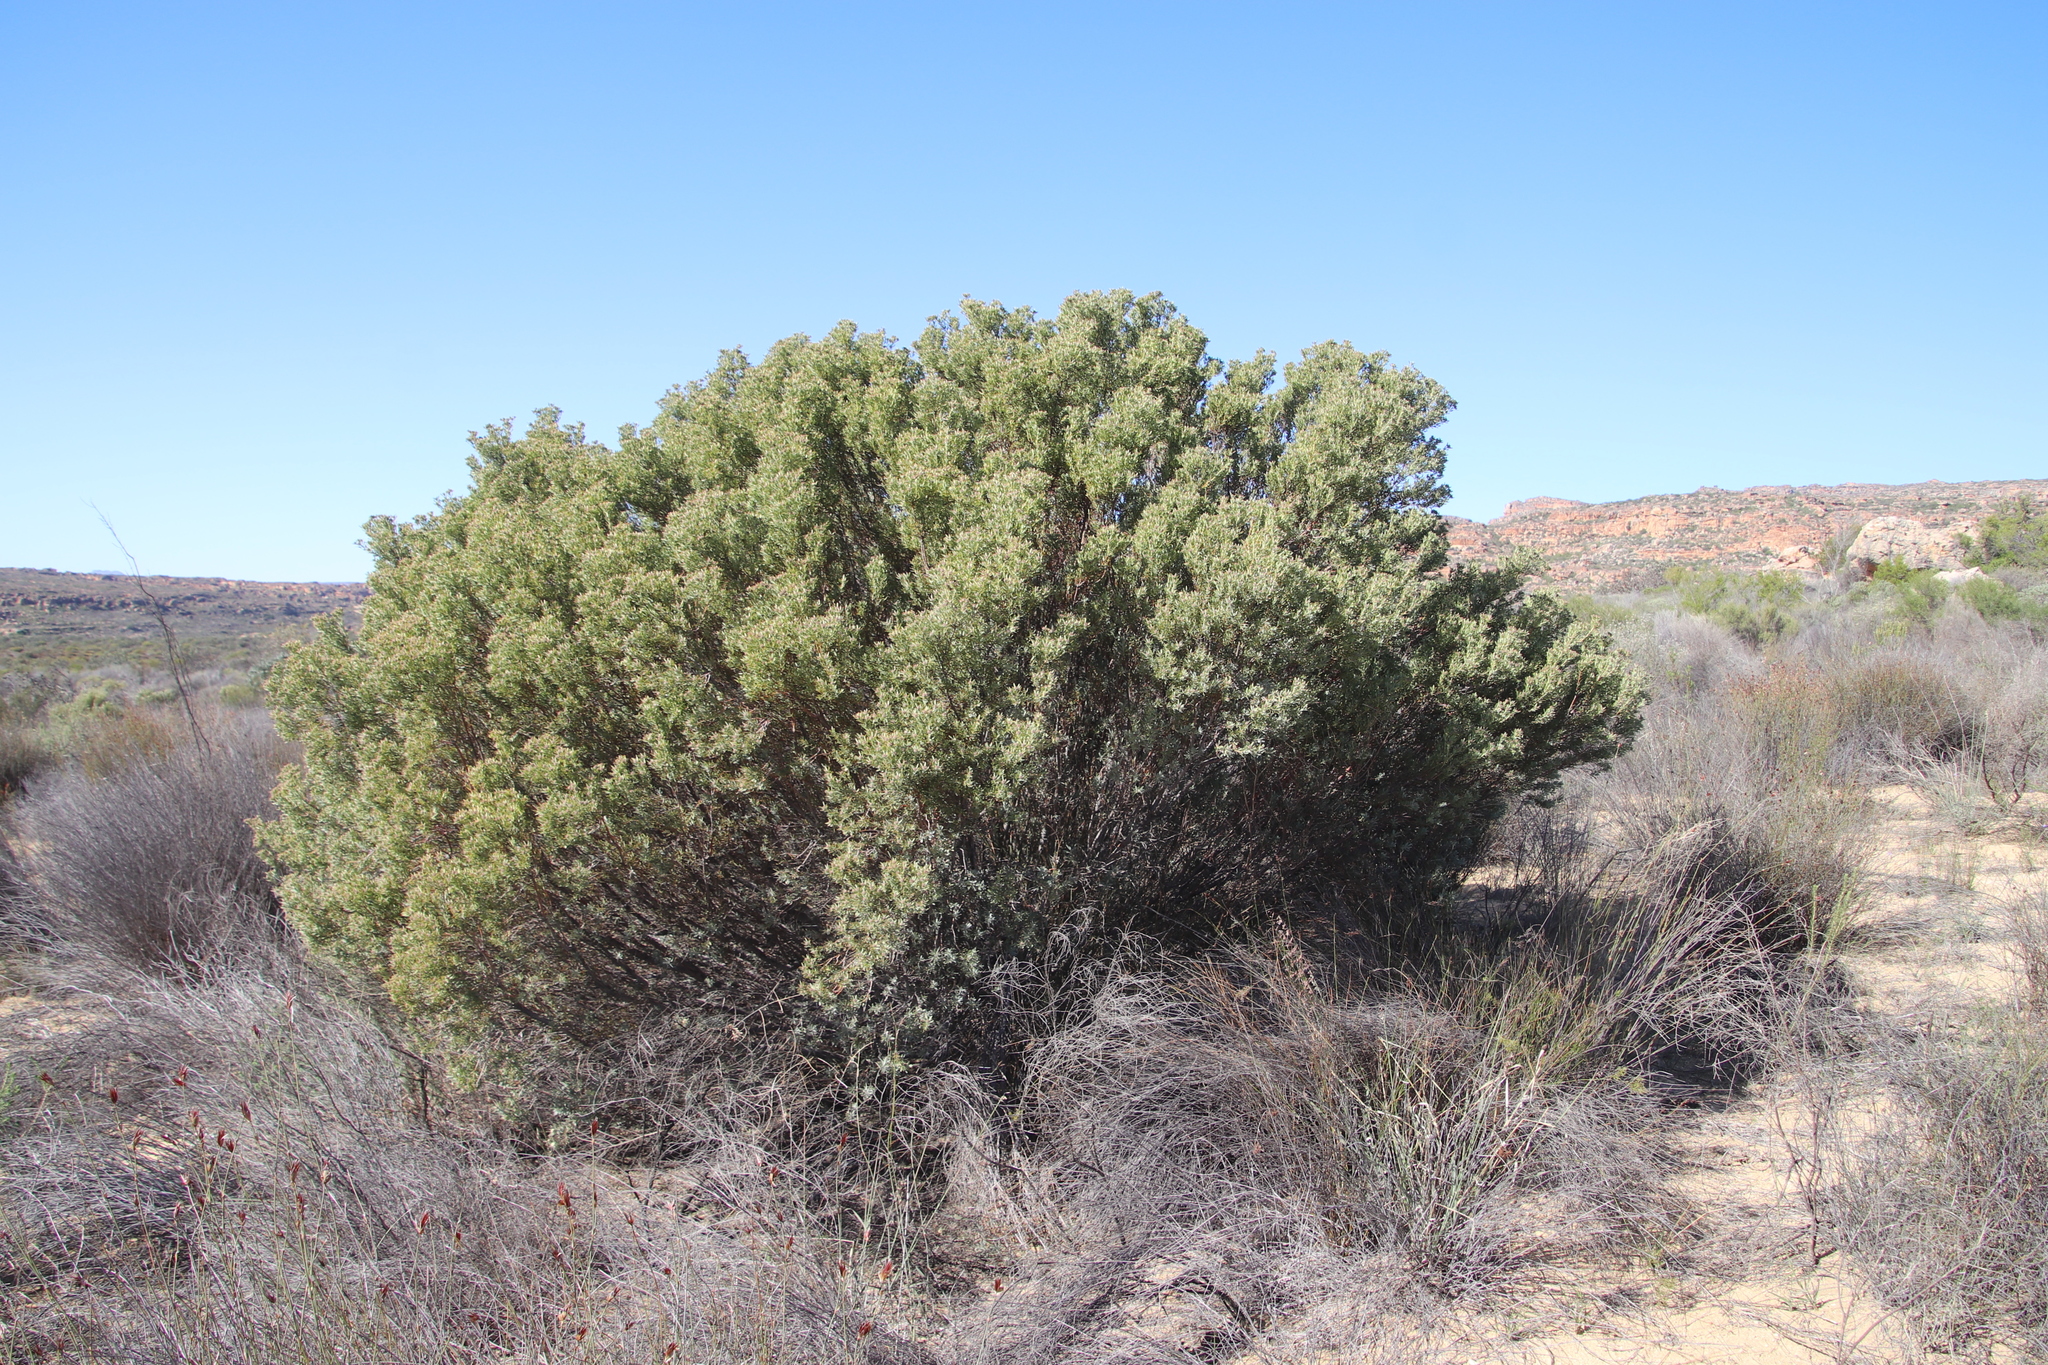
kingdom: Plantae
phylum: Tracheophyta
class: Magnoliopsida
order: Proteales
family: Proteaceae
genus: Leucadendron
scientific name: Leucadendron pubescens
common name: Grey conebush
